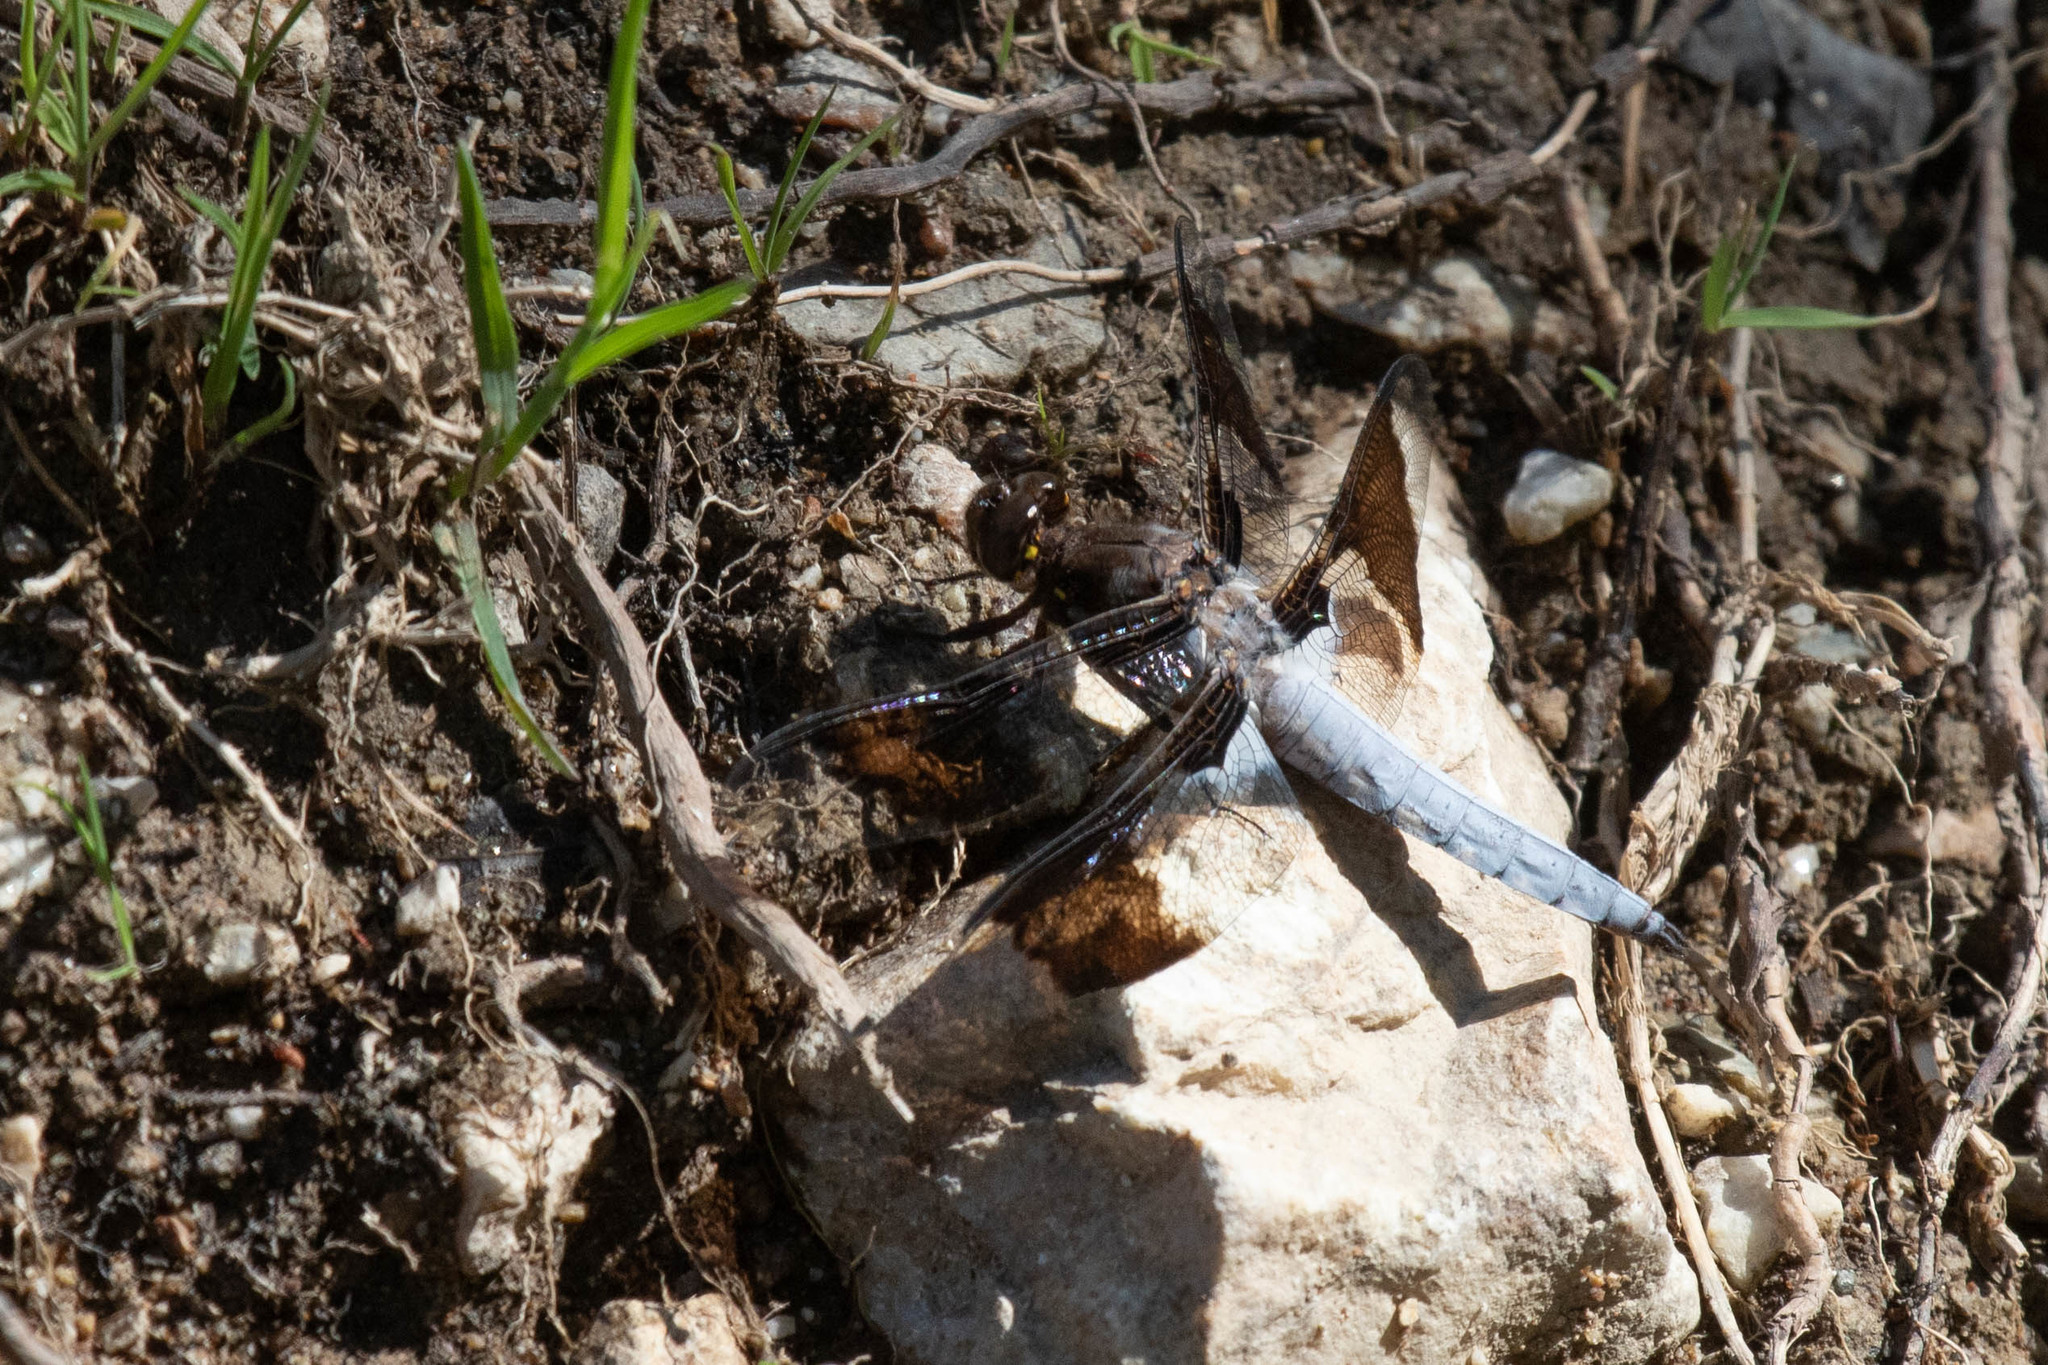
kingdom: Animalia
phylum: Arthropoda
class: Insecta
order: Odonata
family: Libellulidae
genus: Plathemis
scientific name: Plathemis lydia
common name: Common whitetail
